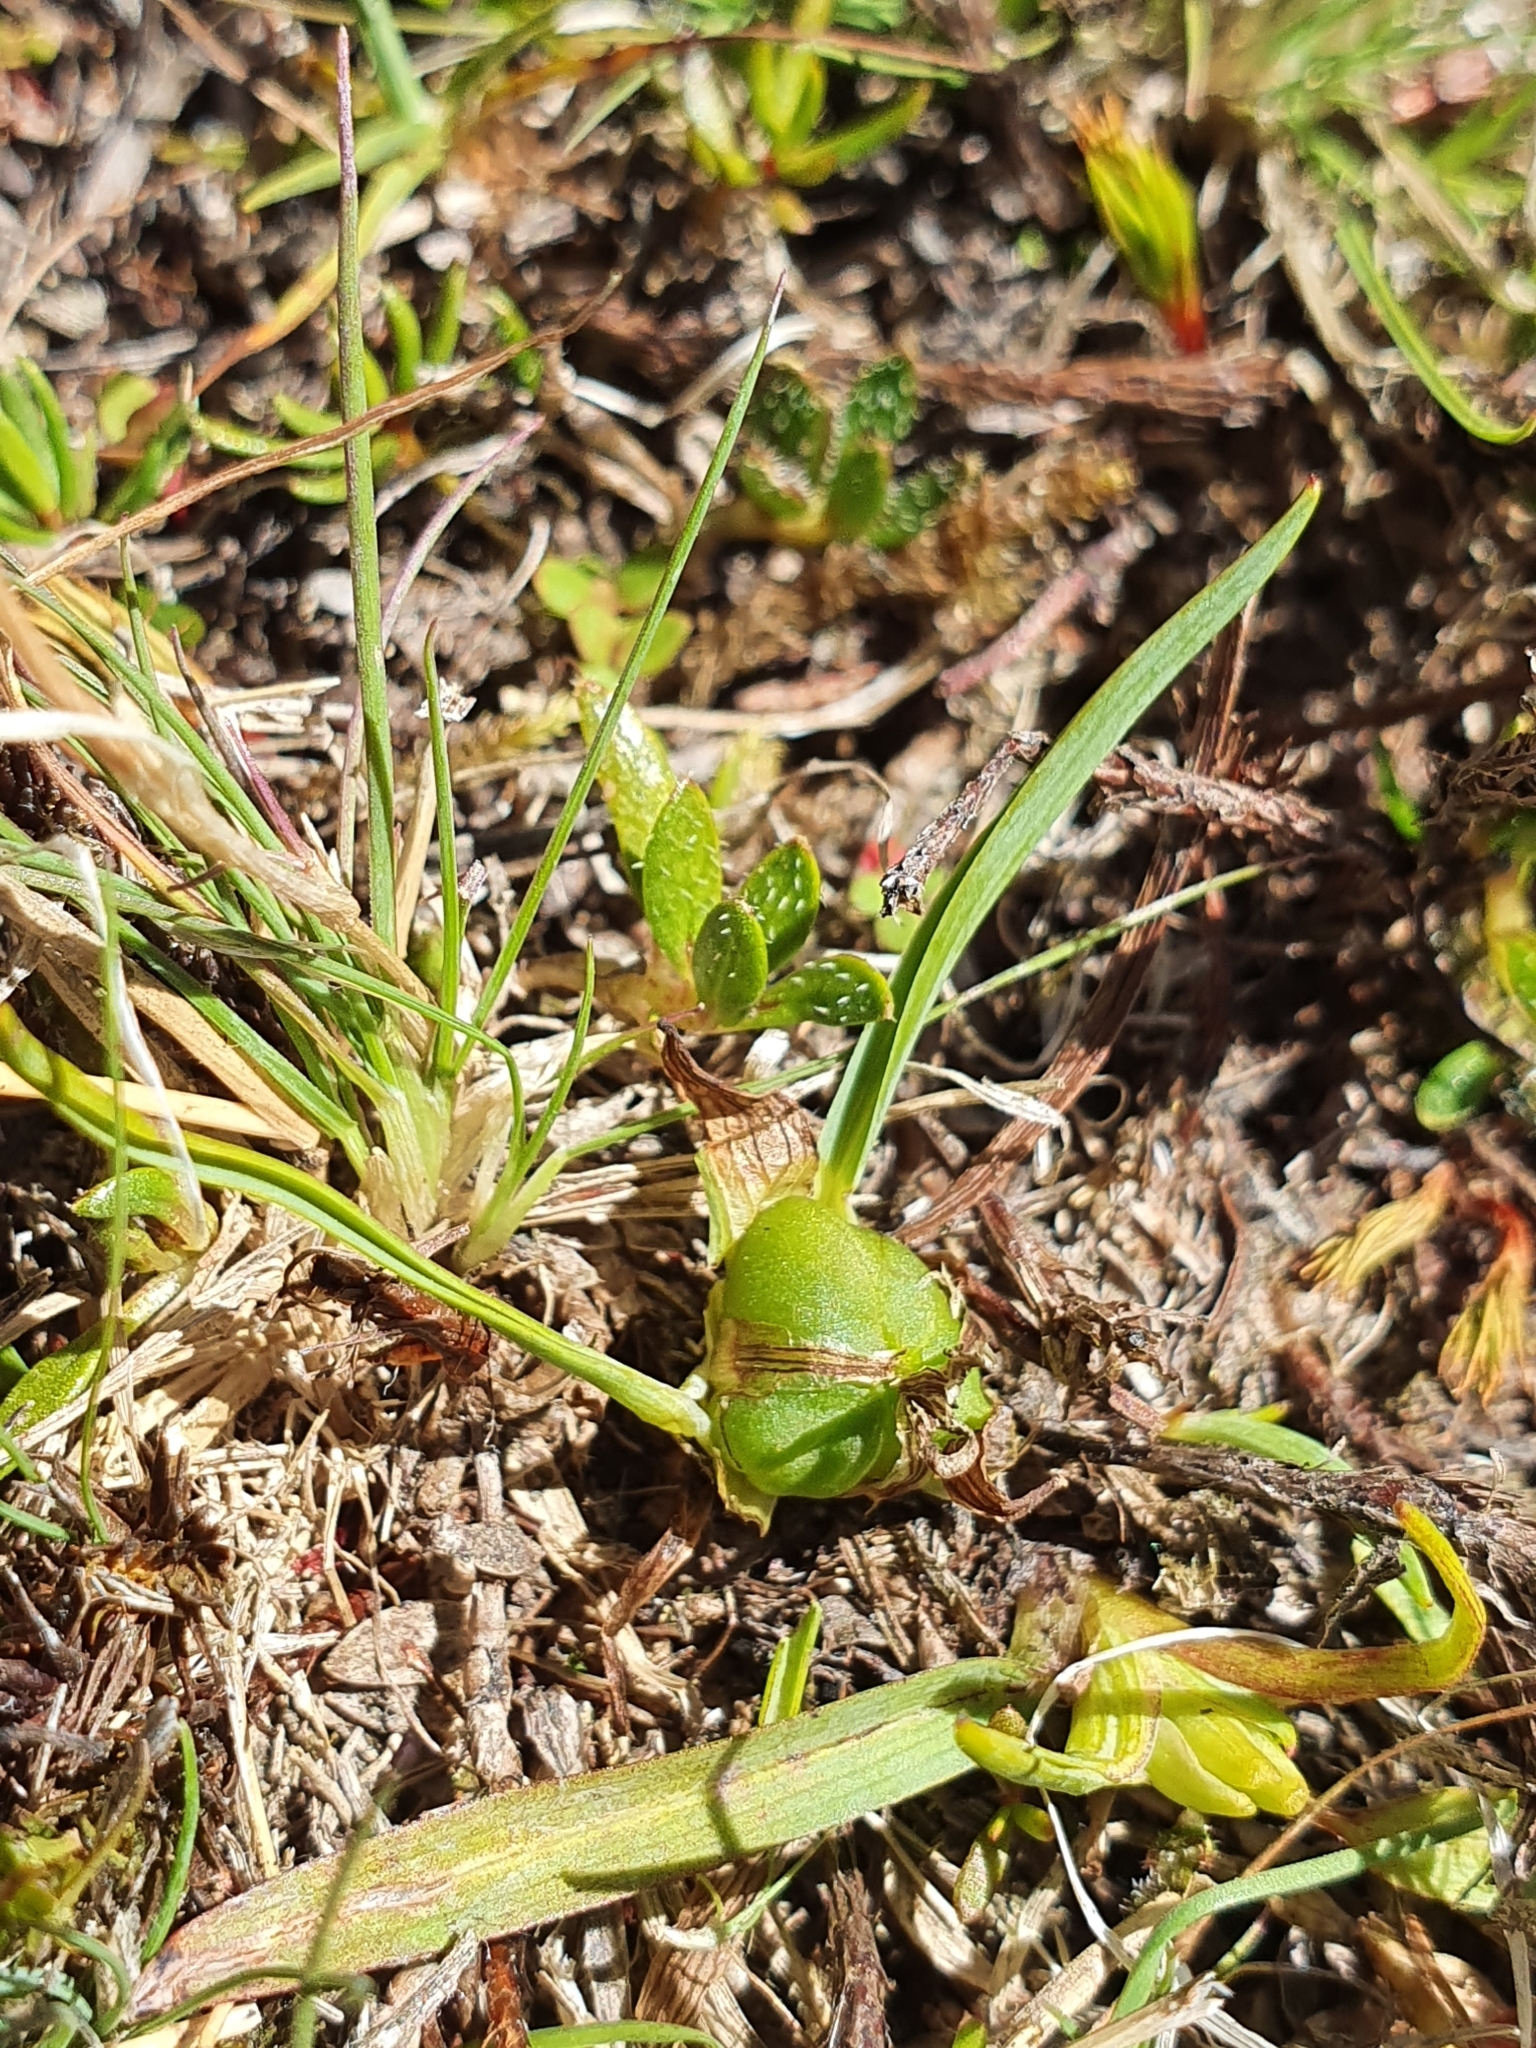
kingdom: Plantae
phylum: Tracheophyta
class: Liliopsida
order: Asparagales
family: Asphodelaceae
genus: Herpolirion
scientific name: Herpolirion novae-zelandiae
